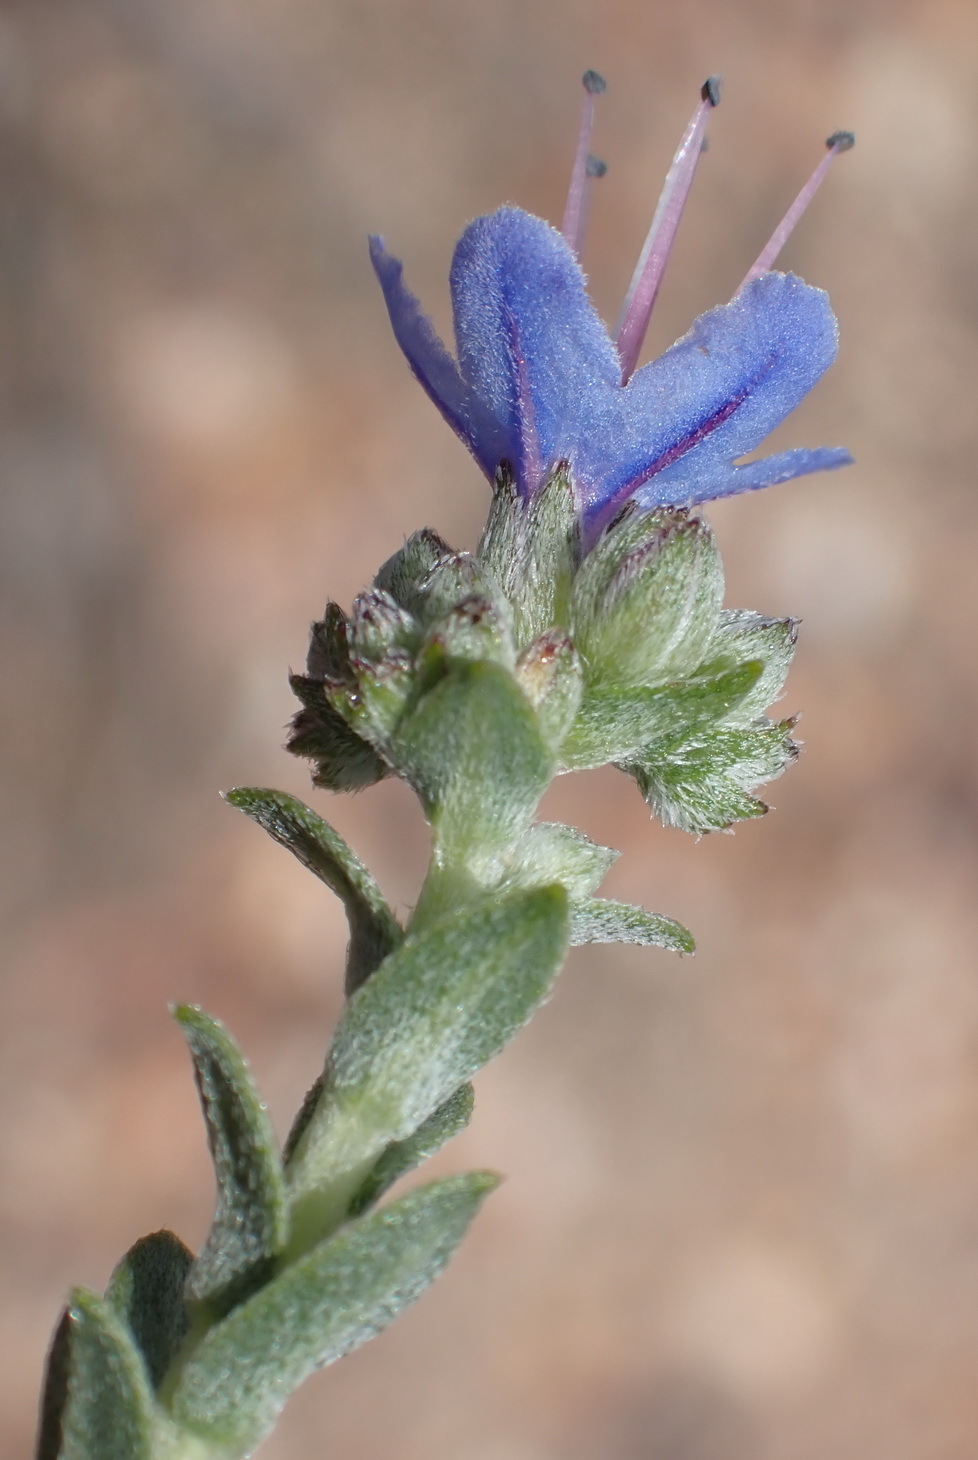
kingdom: Plantae
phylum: Tracheophyta
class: Magnoliopsida
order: Boraginales
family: Boraginaceae
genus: Lobostemon
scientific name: Lobostemon echioides
